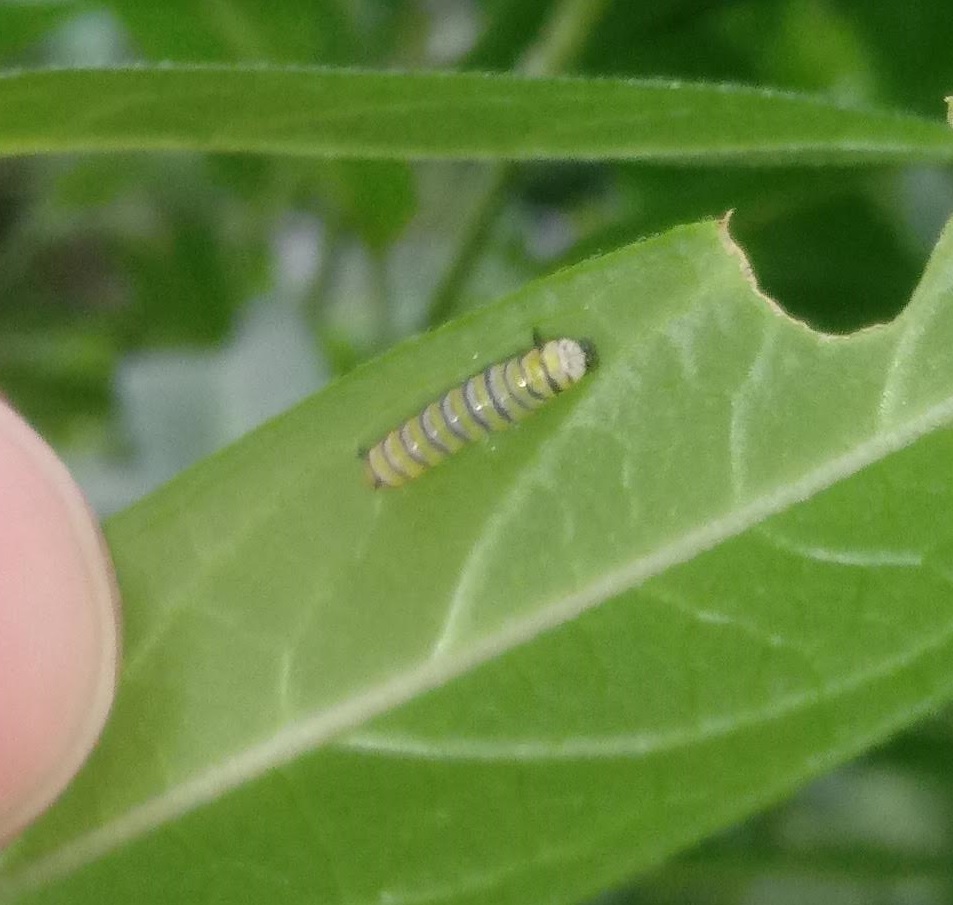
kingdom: Animalia
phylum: Arthropoda
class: Insecta
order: Lepidoptera
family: Nymphalidae
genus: Danaus
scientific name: Danaus plexippus
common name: Monarch
